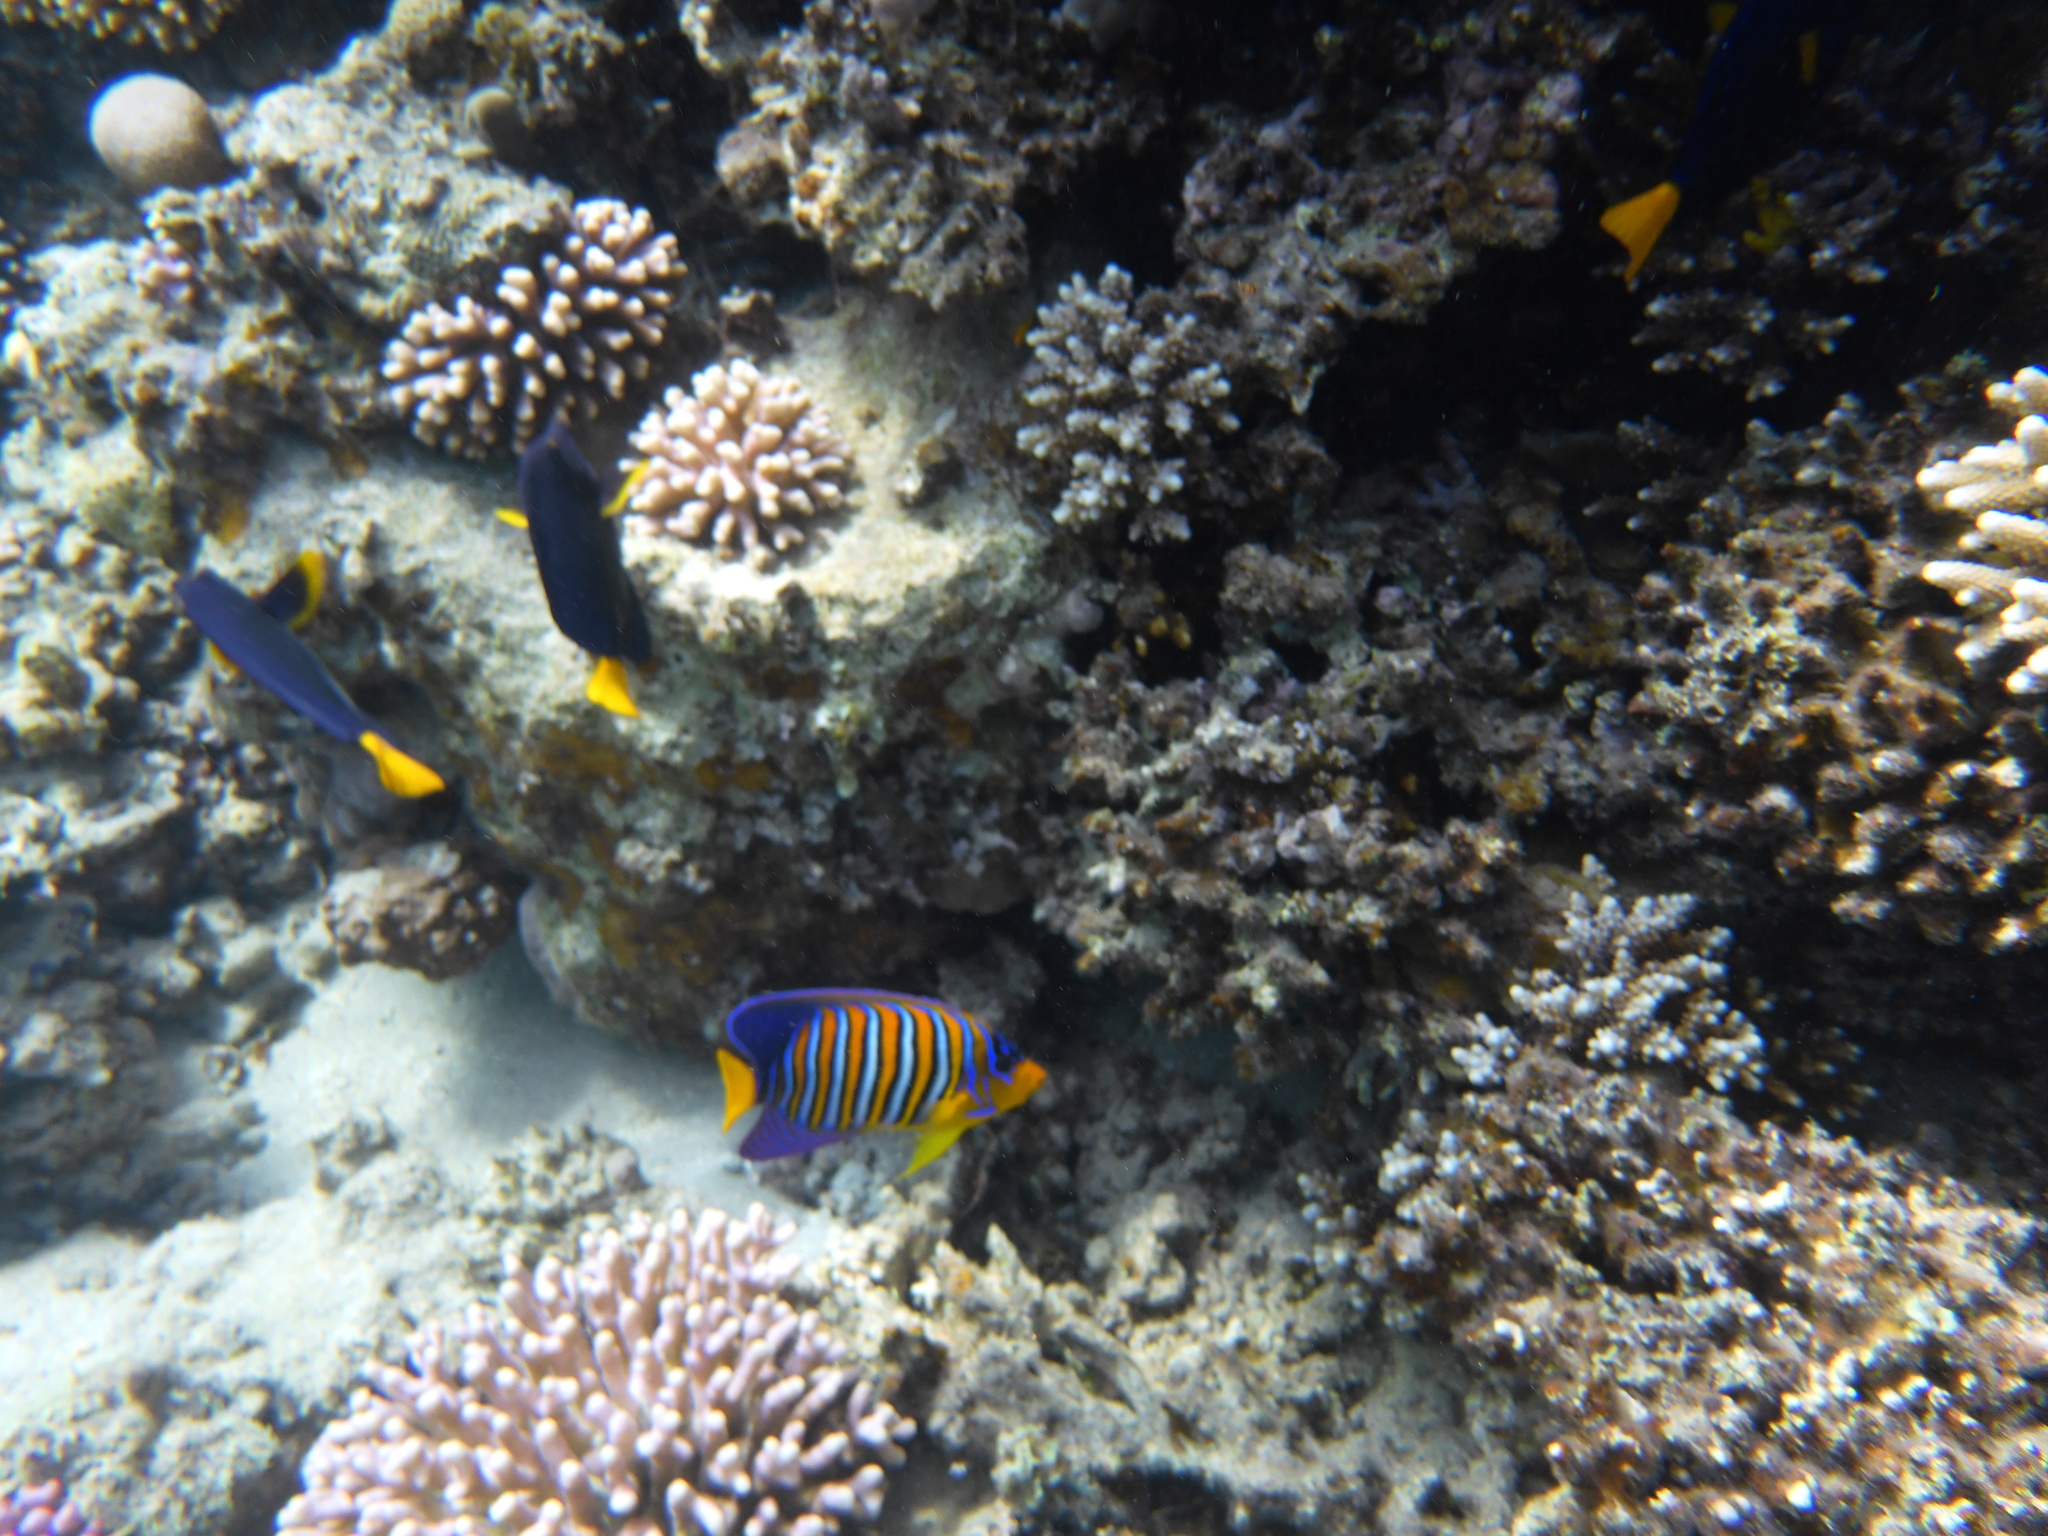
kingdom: Animalia
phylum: Chordata
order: Perciformes
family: Pomacanthidae
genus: Pygoplites
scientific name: Pygoplites diacanthus
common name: Regal angelfish
